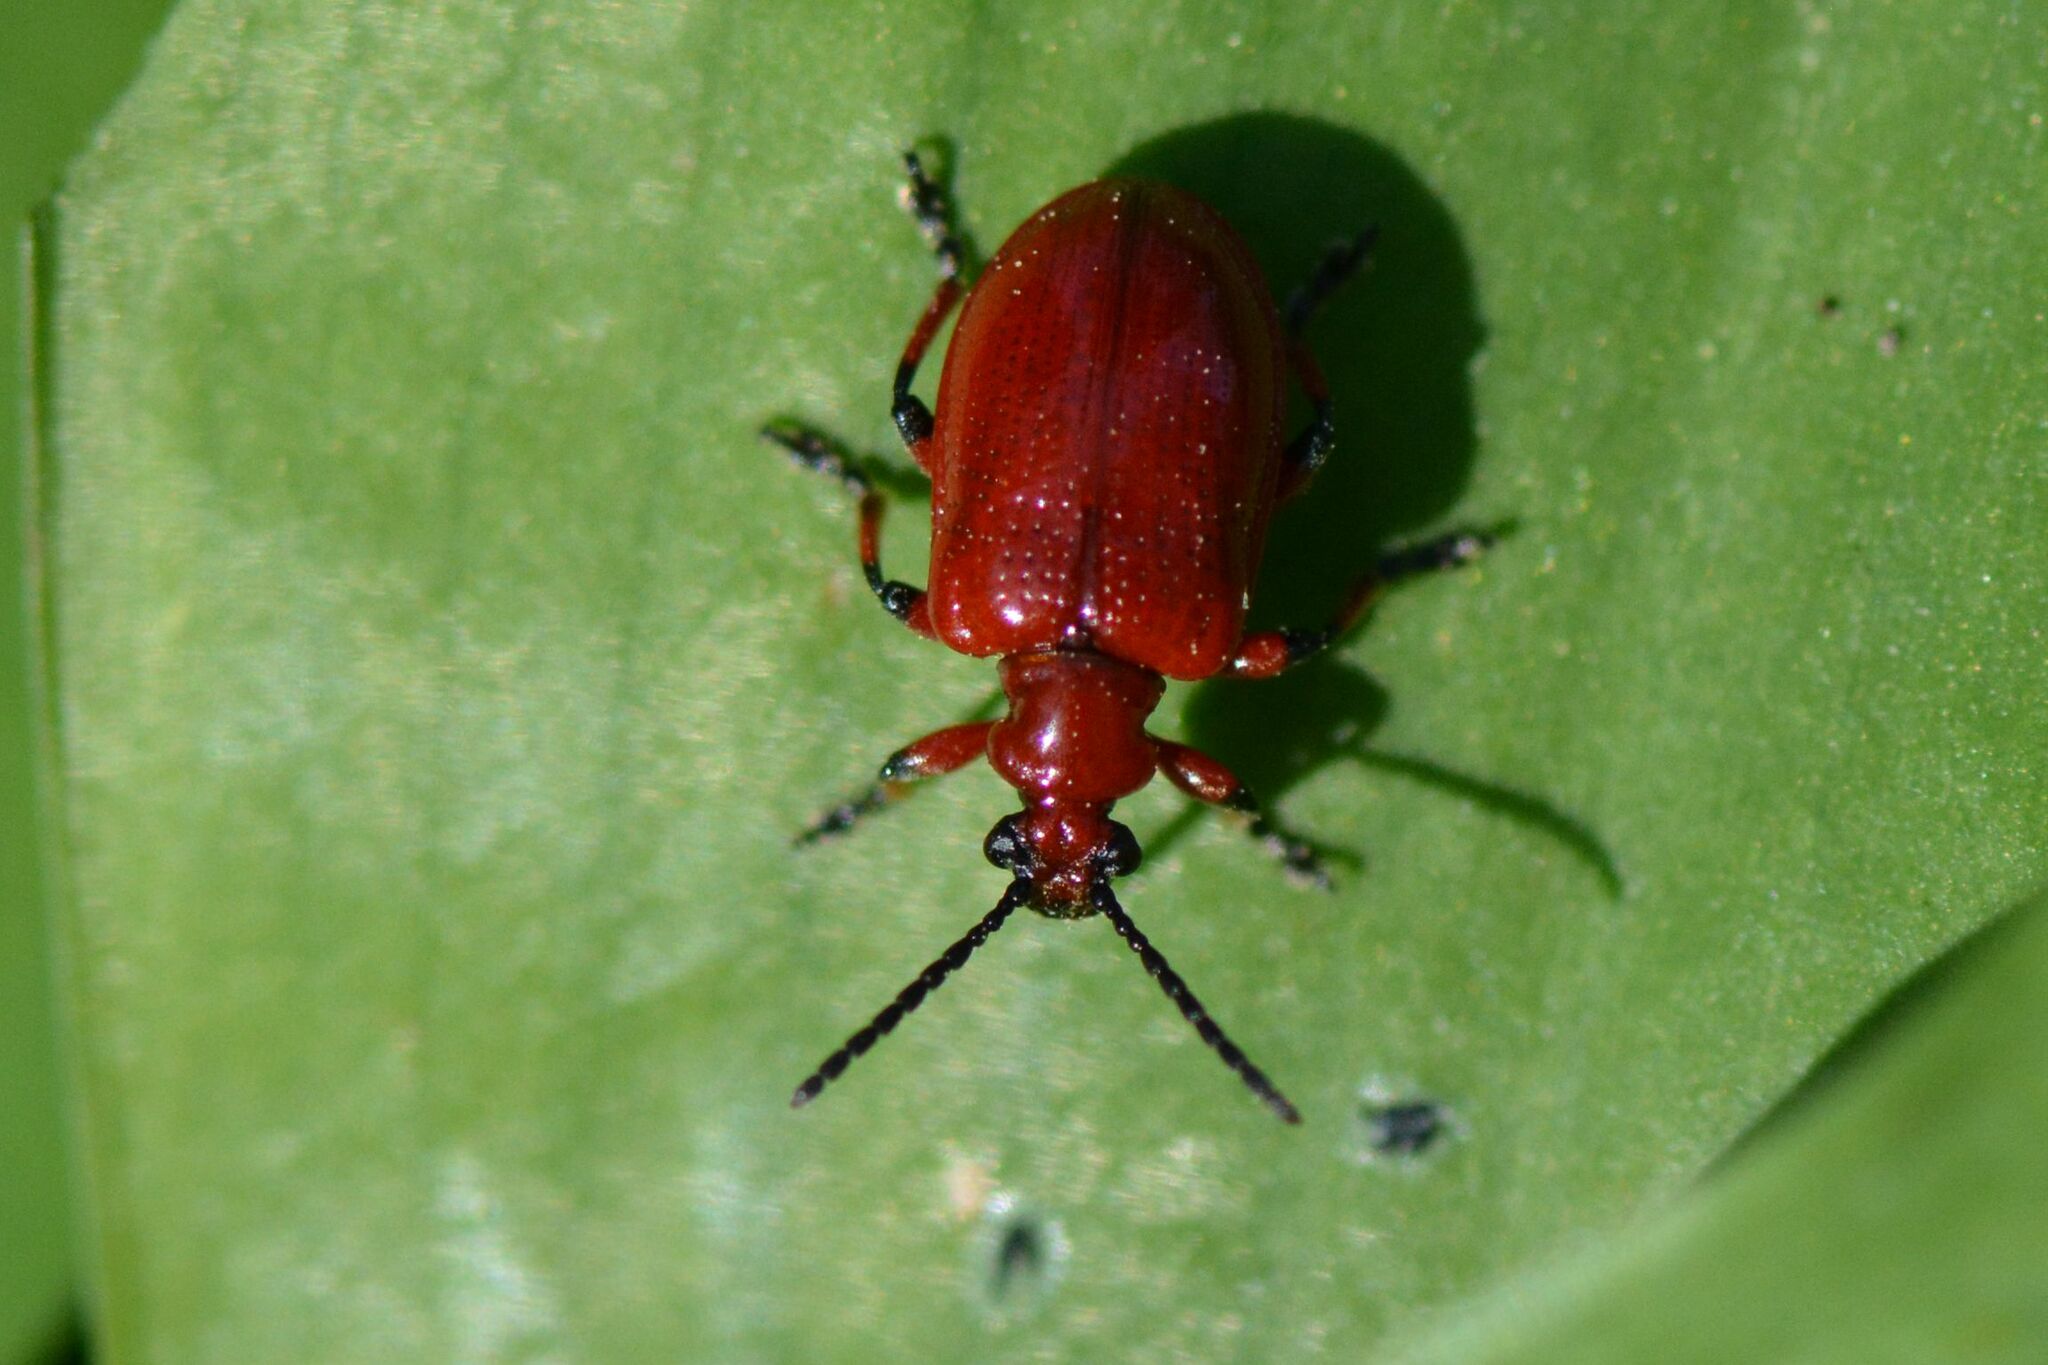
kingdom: Animalia
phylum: Arthropoda
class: Insecta
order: Coleoptera
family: Chrysomelidae
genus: Lilioceris
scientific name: Lilioceris merdigera
